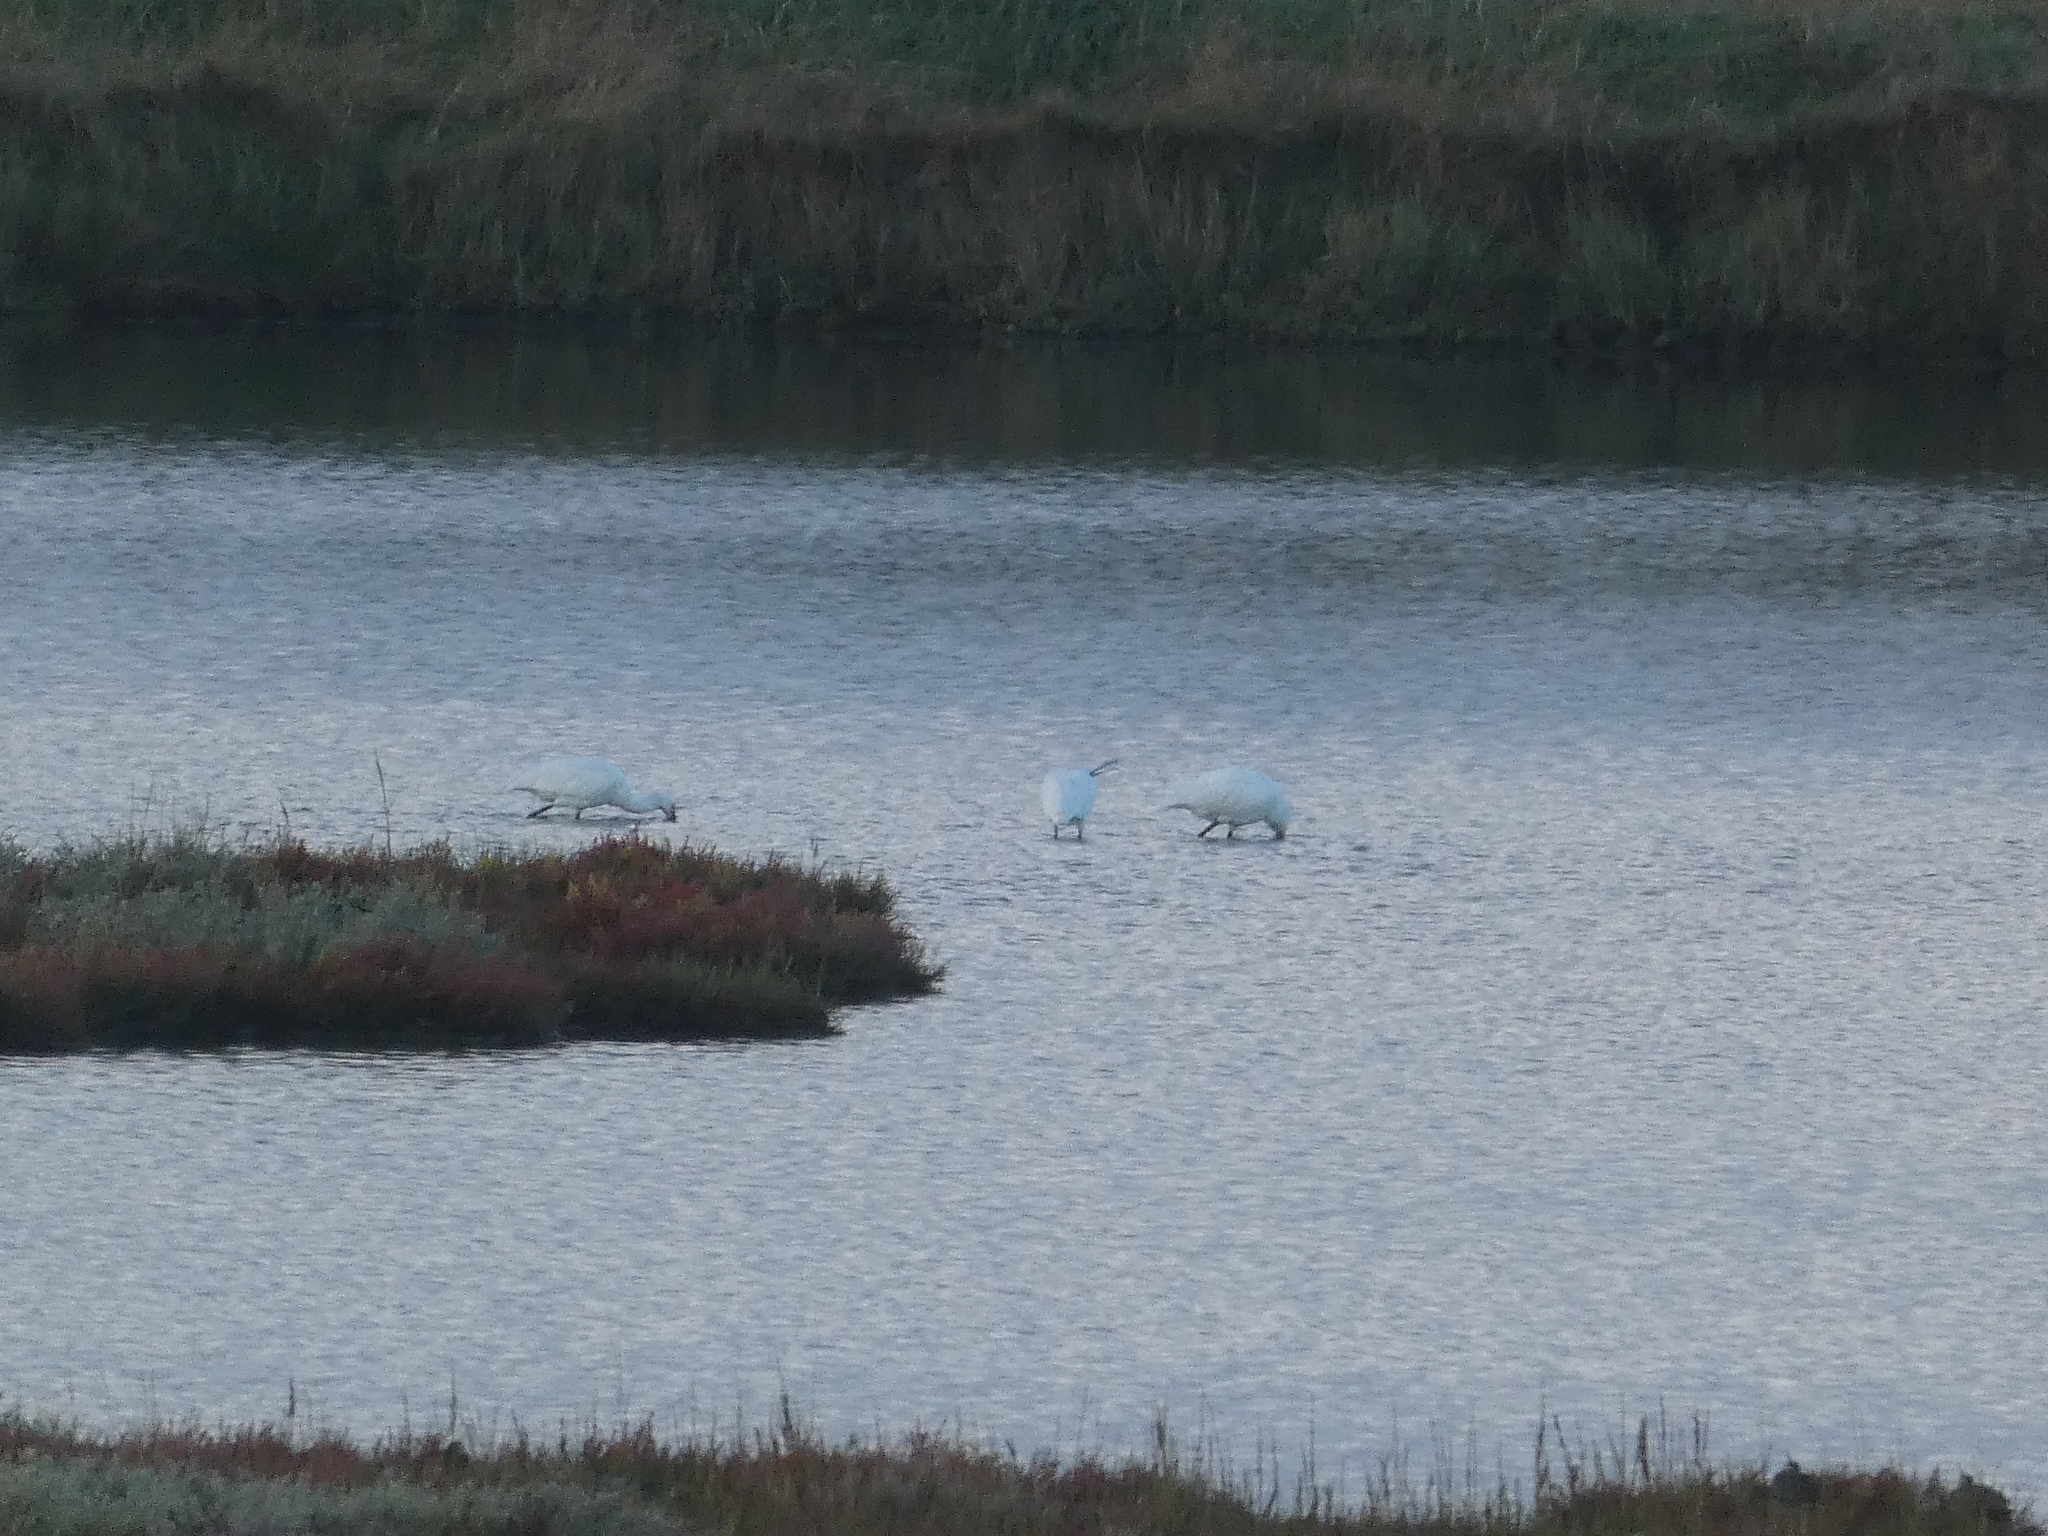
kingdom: Animalia
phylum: Chordata
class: Aves
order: Pelecaniformes
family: Threskiornithidae
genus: Platalea
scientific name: Platalea leucorodia
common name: Eurasian spoonbill
